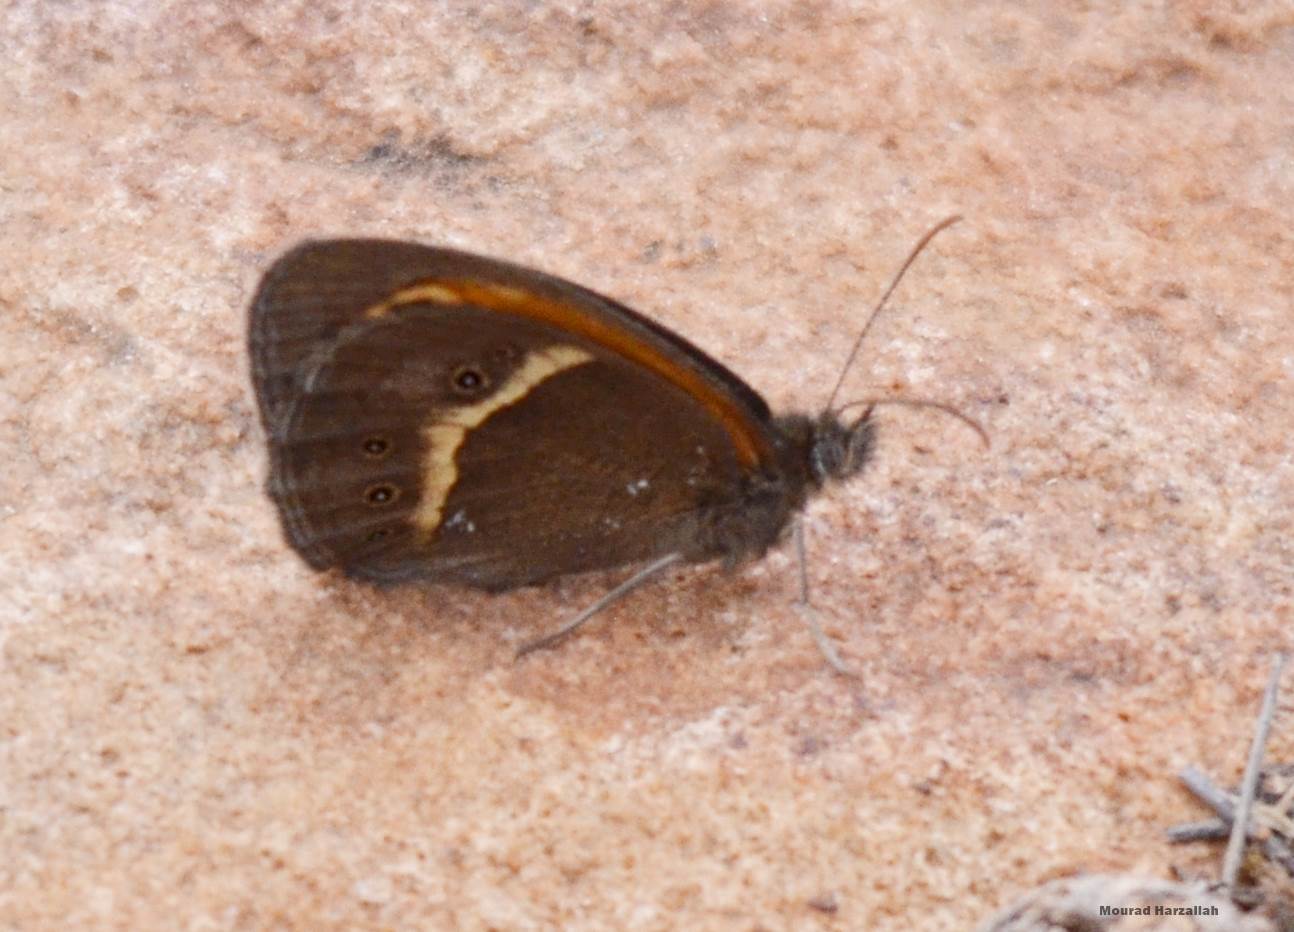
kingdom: Animalia
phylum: Arthropoda
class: Insecta
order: Lepidoptera
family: Nymphalidae
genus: Pyronia
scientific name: Pyronia bathseba
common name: Spanish gatekeeper
